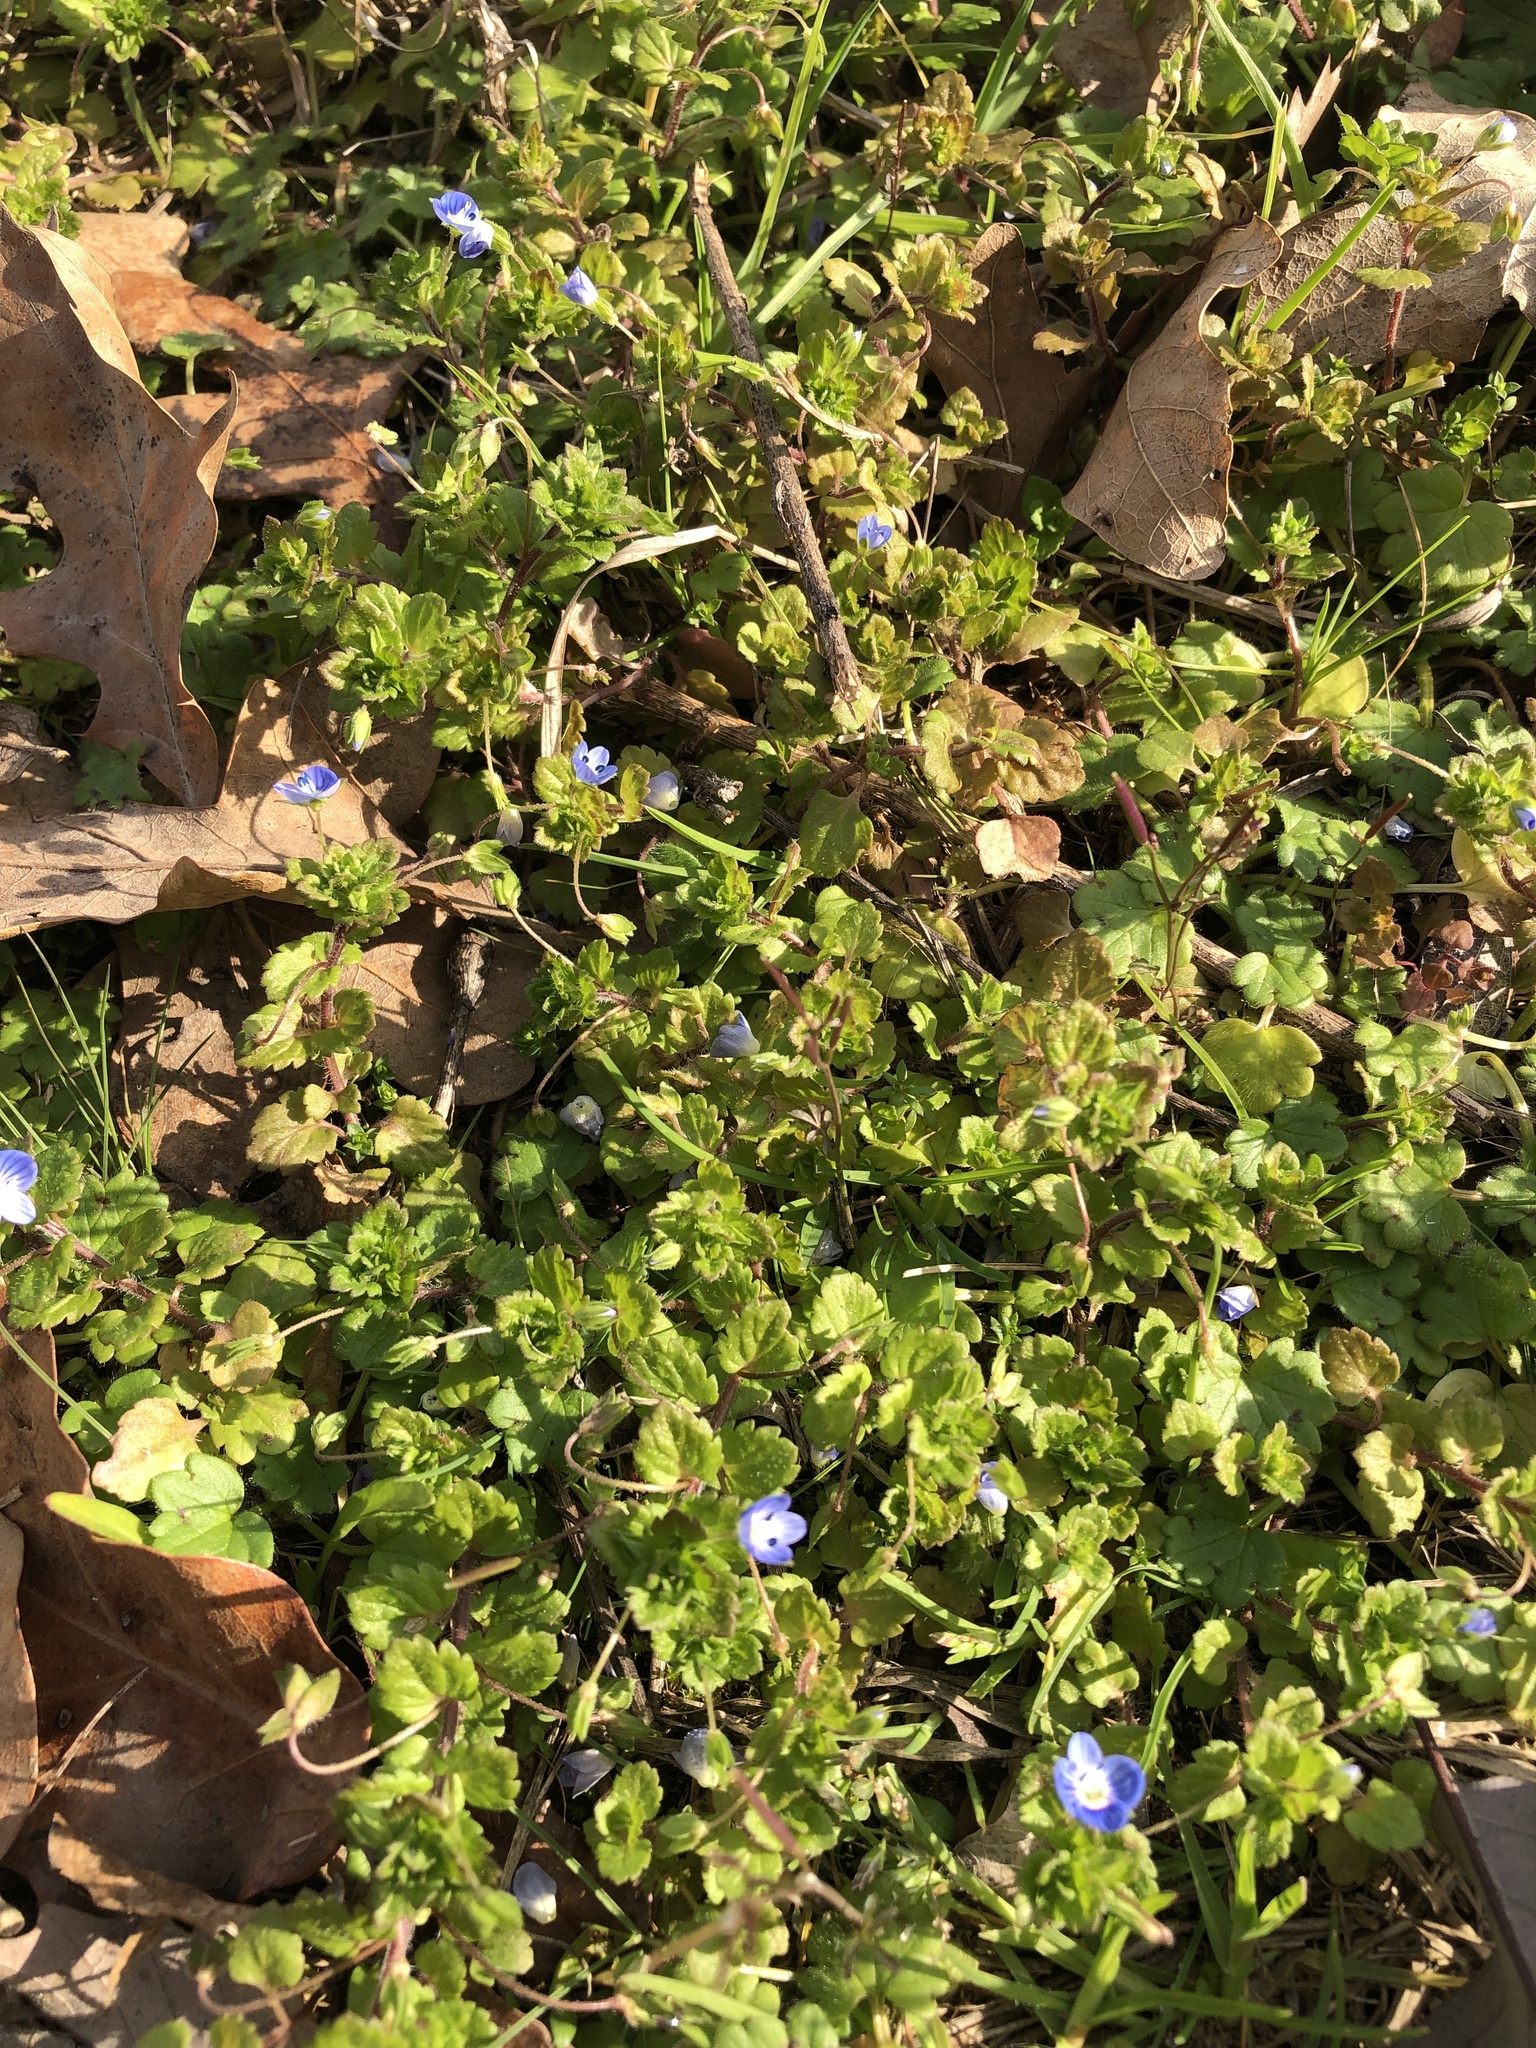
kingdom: Plantae
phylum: Tracheophyta
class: Magnoliopsida
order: Lamiales
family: Plantaginaceae
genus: Veronica
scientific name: Veronica persica
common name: Common field-speedwell
